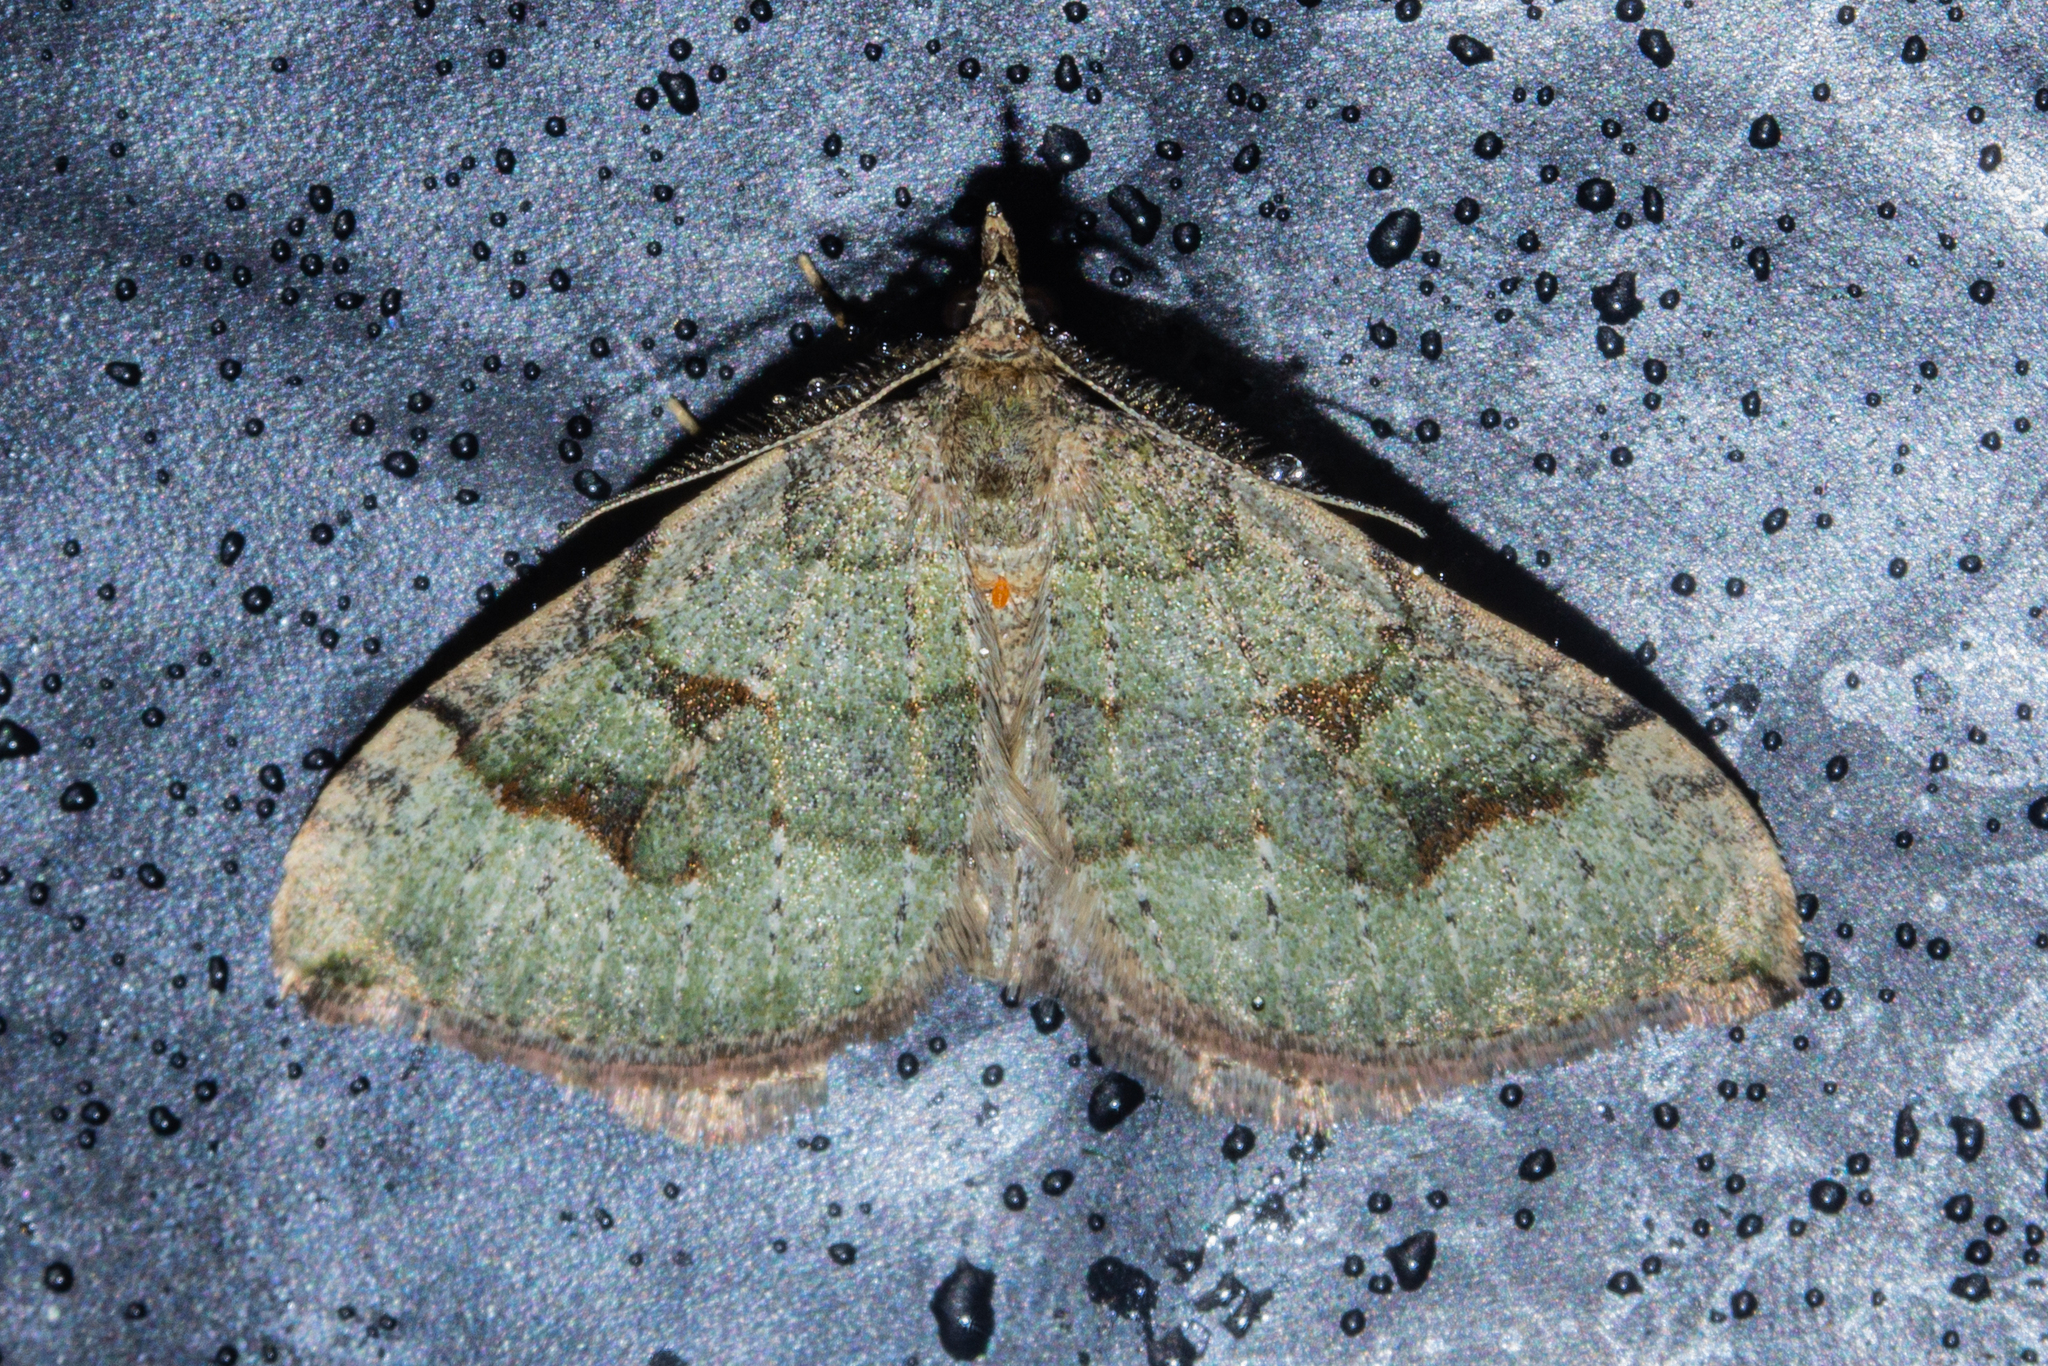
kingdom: Animalia
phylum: Arthropoda
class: Insecta
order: Lepidoptera
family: Geometridae
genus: Epyaxa
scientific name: Epyaxa rosearia
